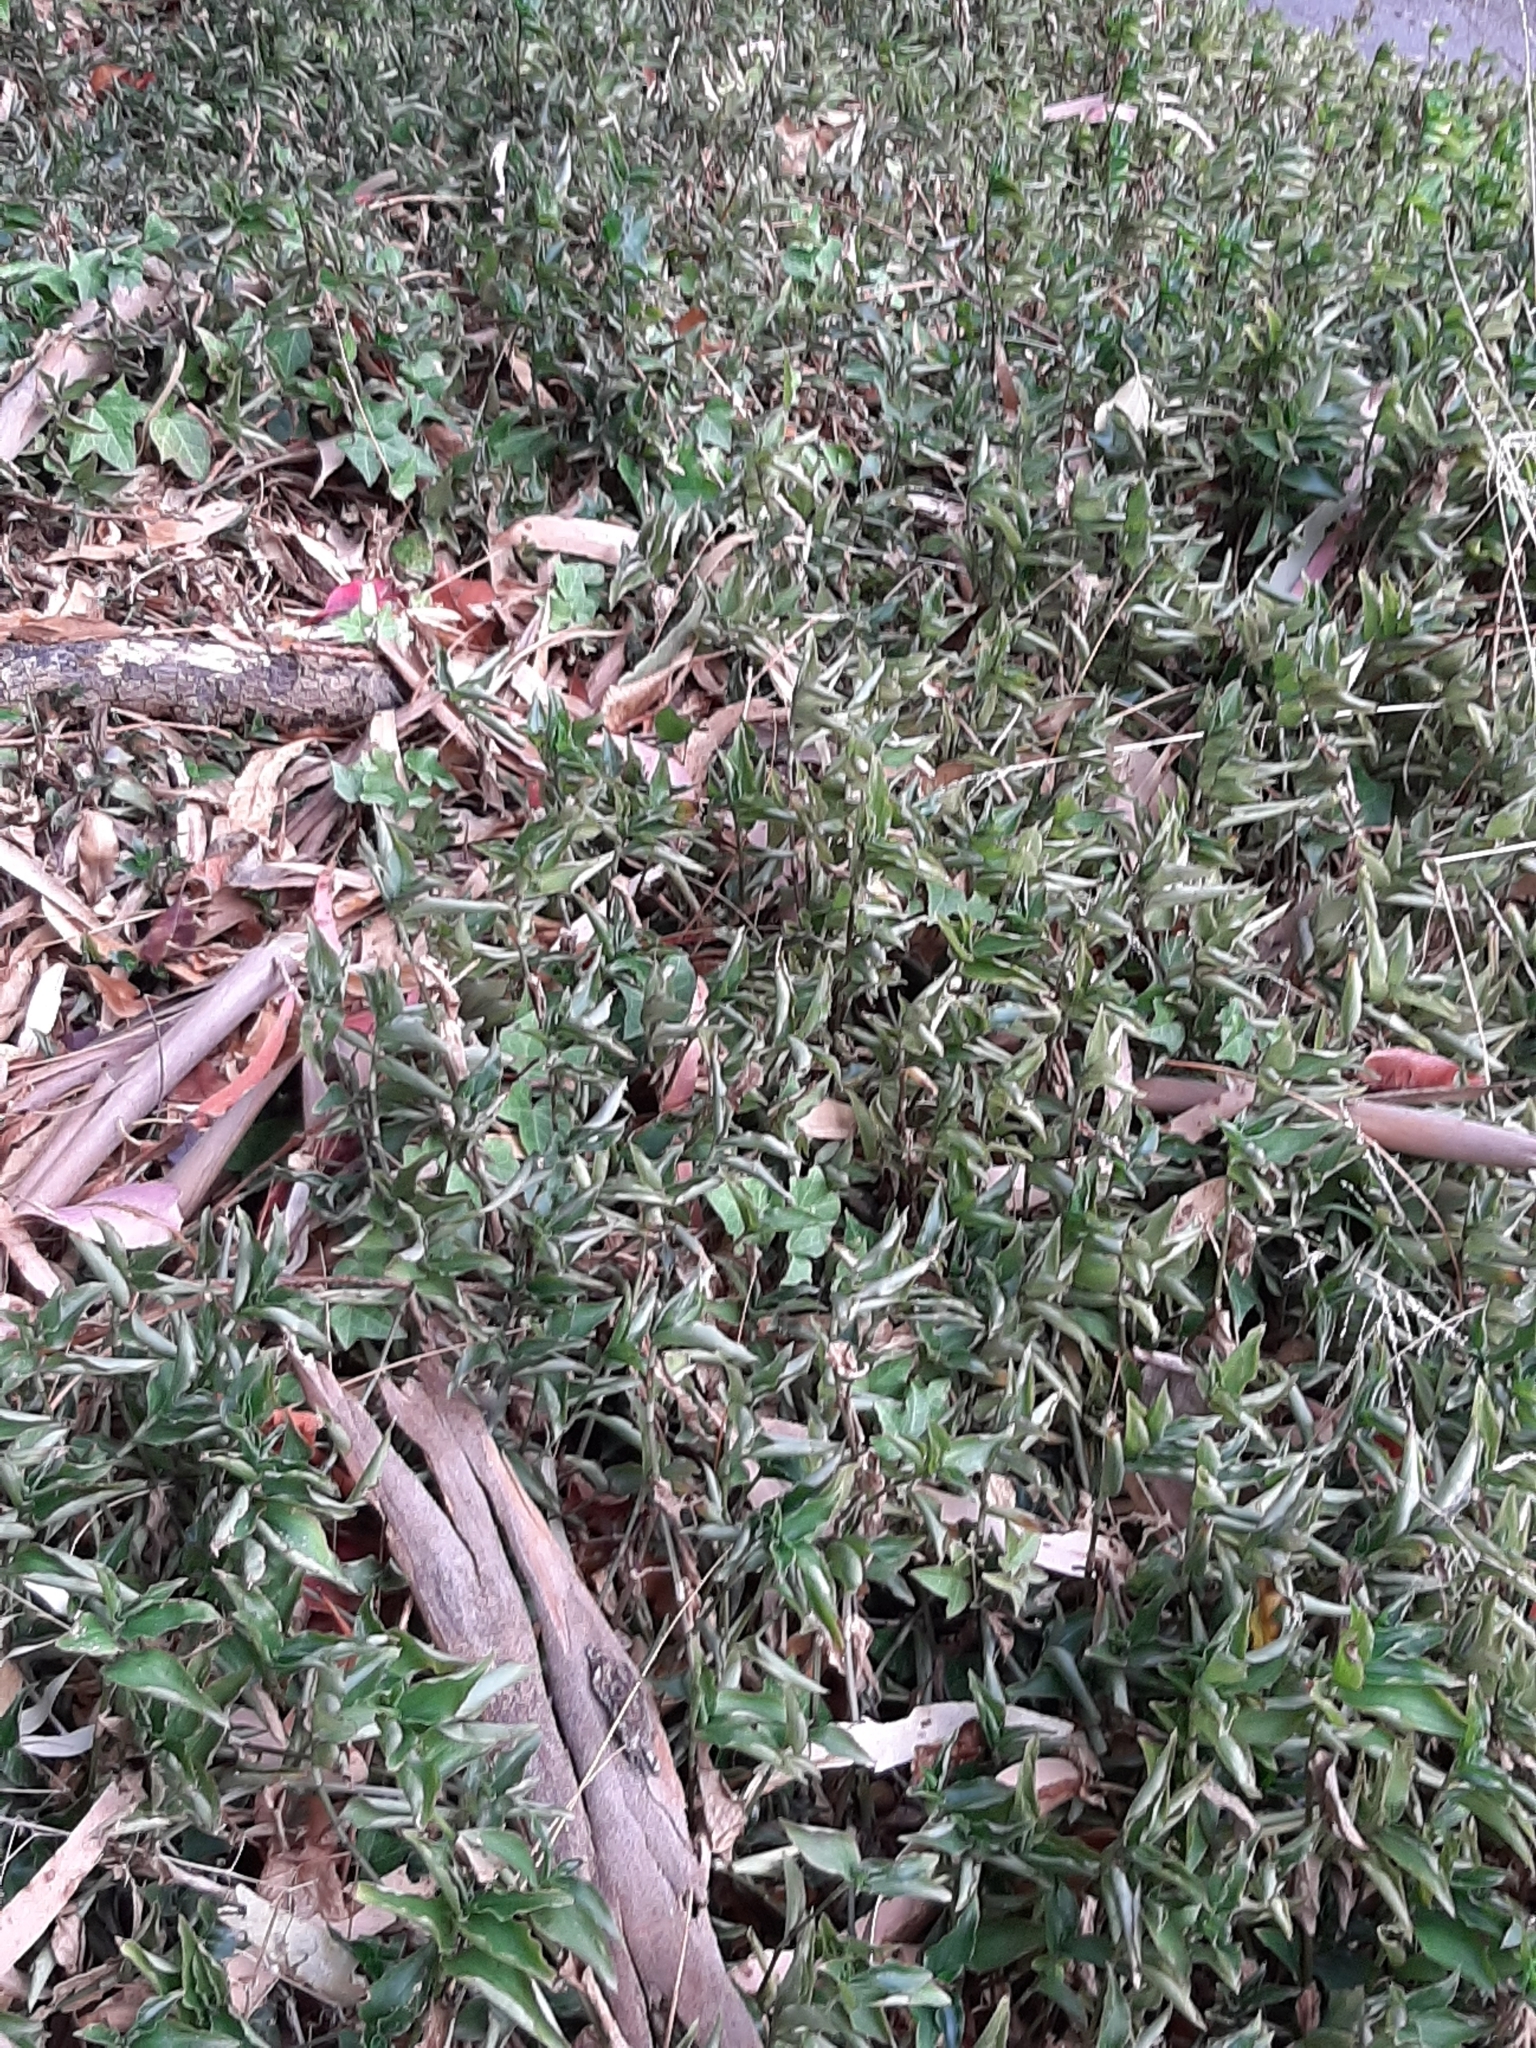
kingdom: Plantae
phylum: Tracheophyta
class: Liliopsida
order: Commelinales
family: Commelinaceae
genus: Tradescantia
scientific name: Tradescantia fluminensis
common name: Wandering-jew
